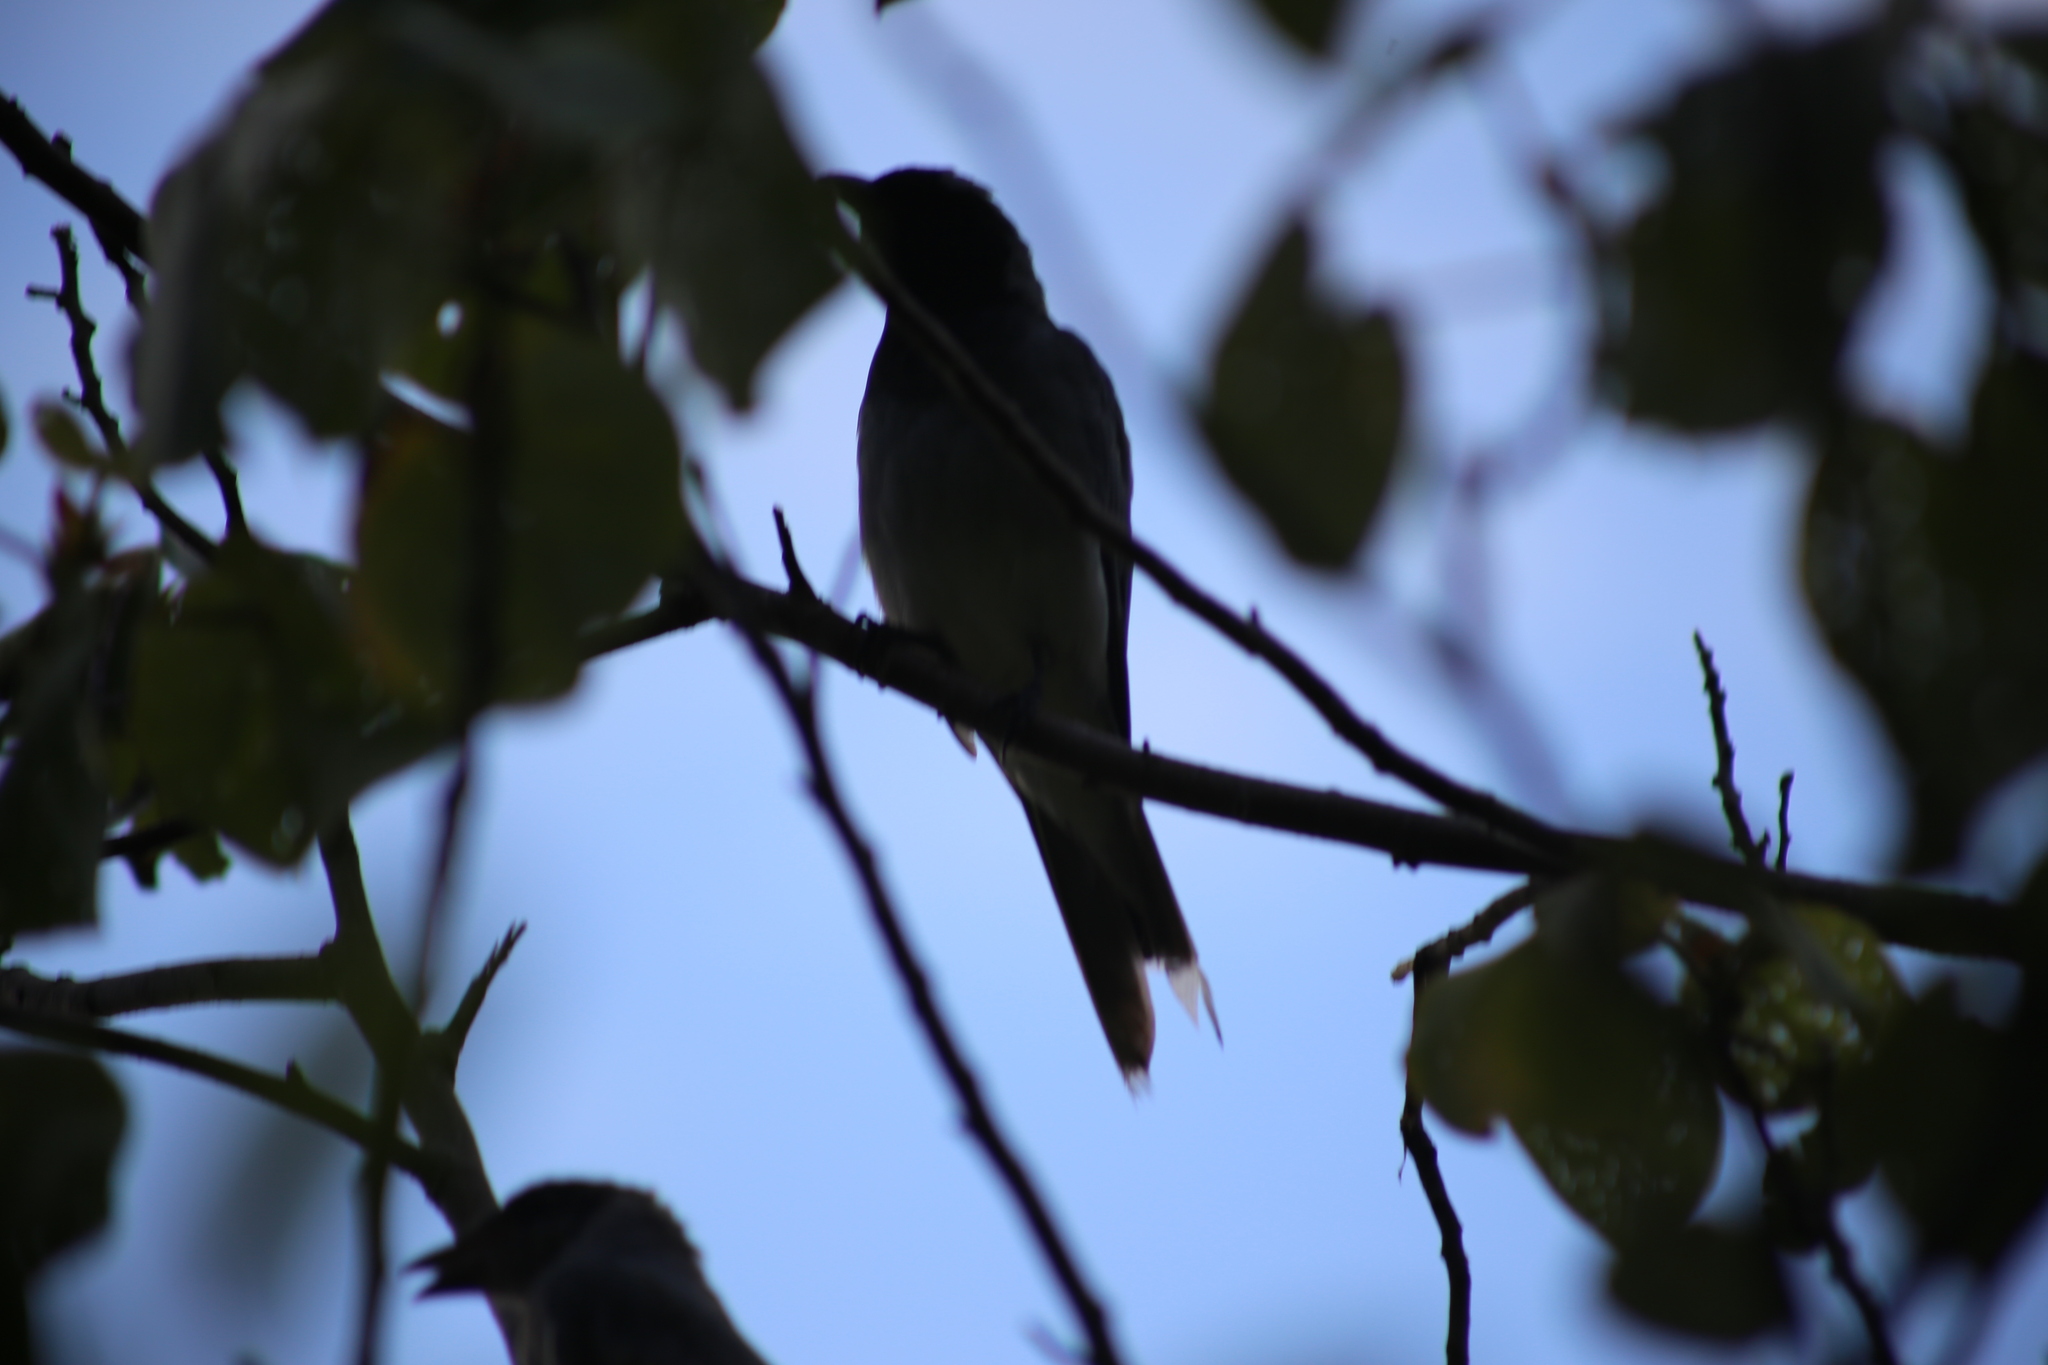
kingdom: Animalia
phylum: Chordata
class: Aves
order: Passeriformes
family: Campephagidae
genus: Coracina
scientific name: Coracina novaehollandiae
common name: Black-faced cuckooshrike
